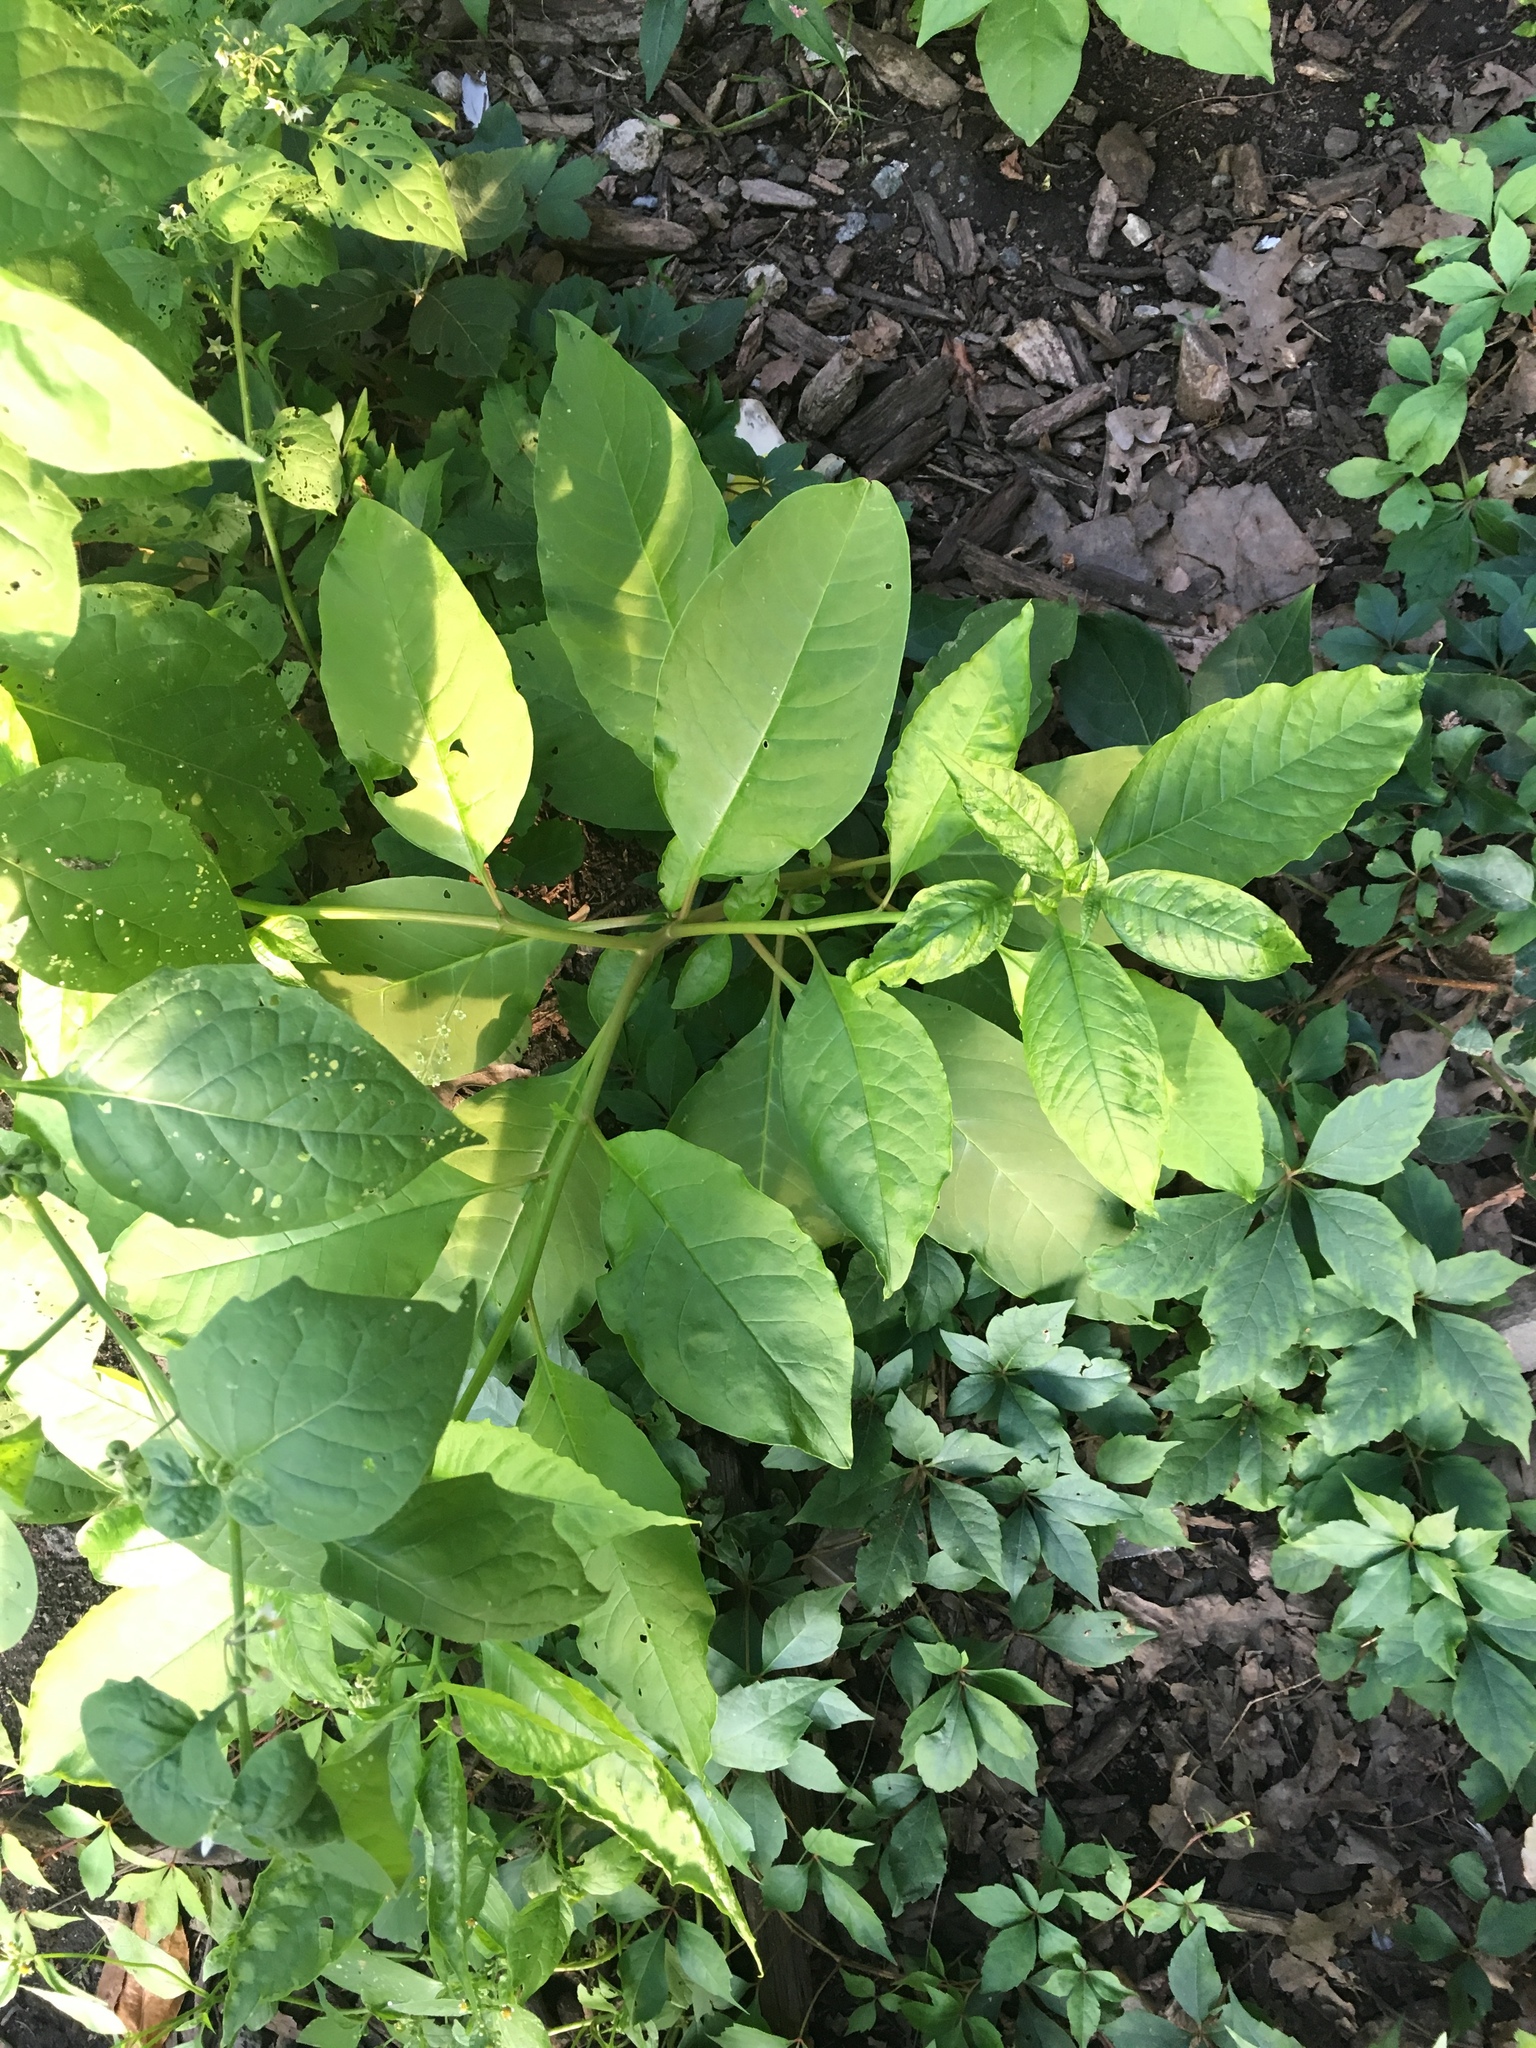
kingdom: Plantae
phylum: Tracheophyta
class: Magnoliopsida
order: Caryophyllales
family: Phytolaccaceae
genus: Phytolacca
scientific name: Phytolacca americana
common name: American pokeweed
